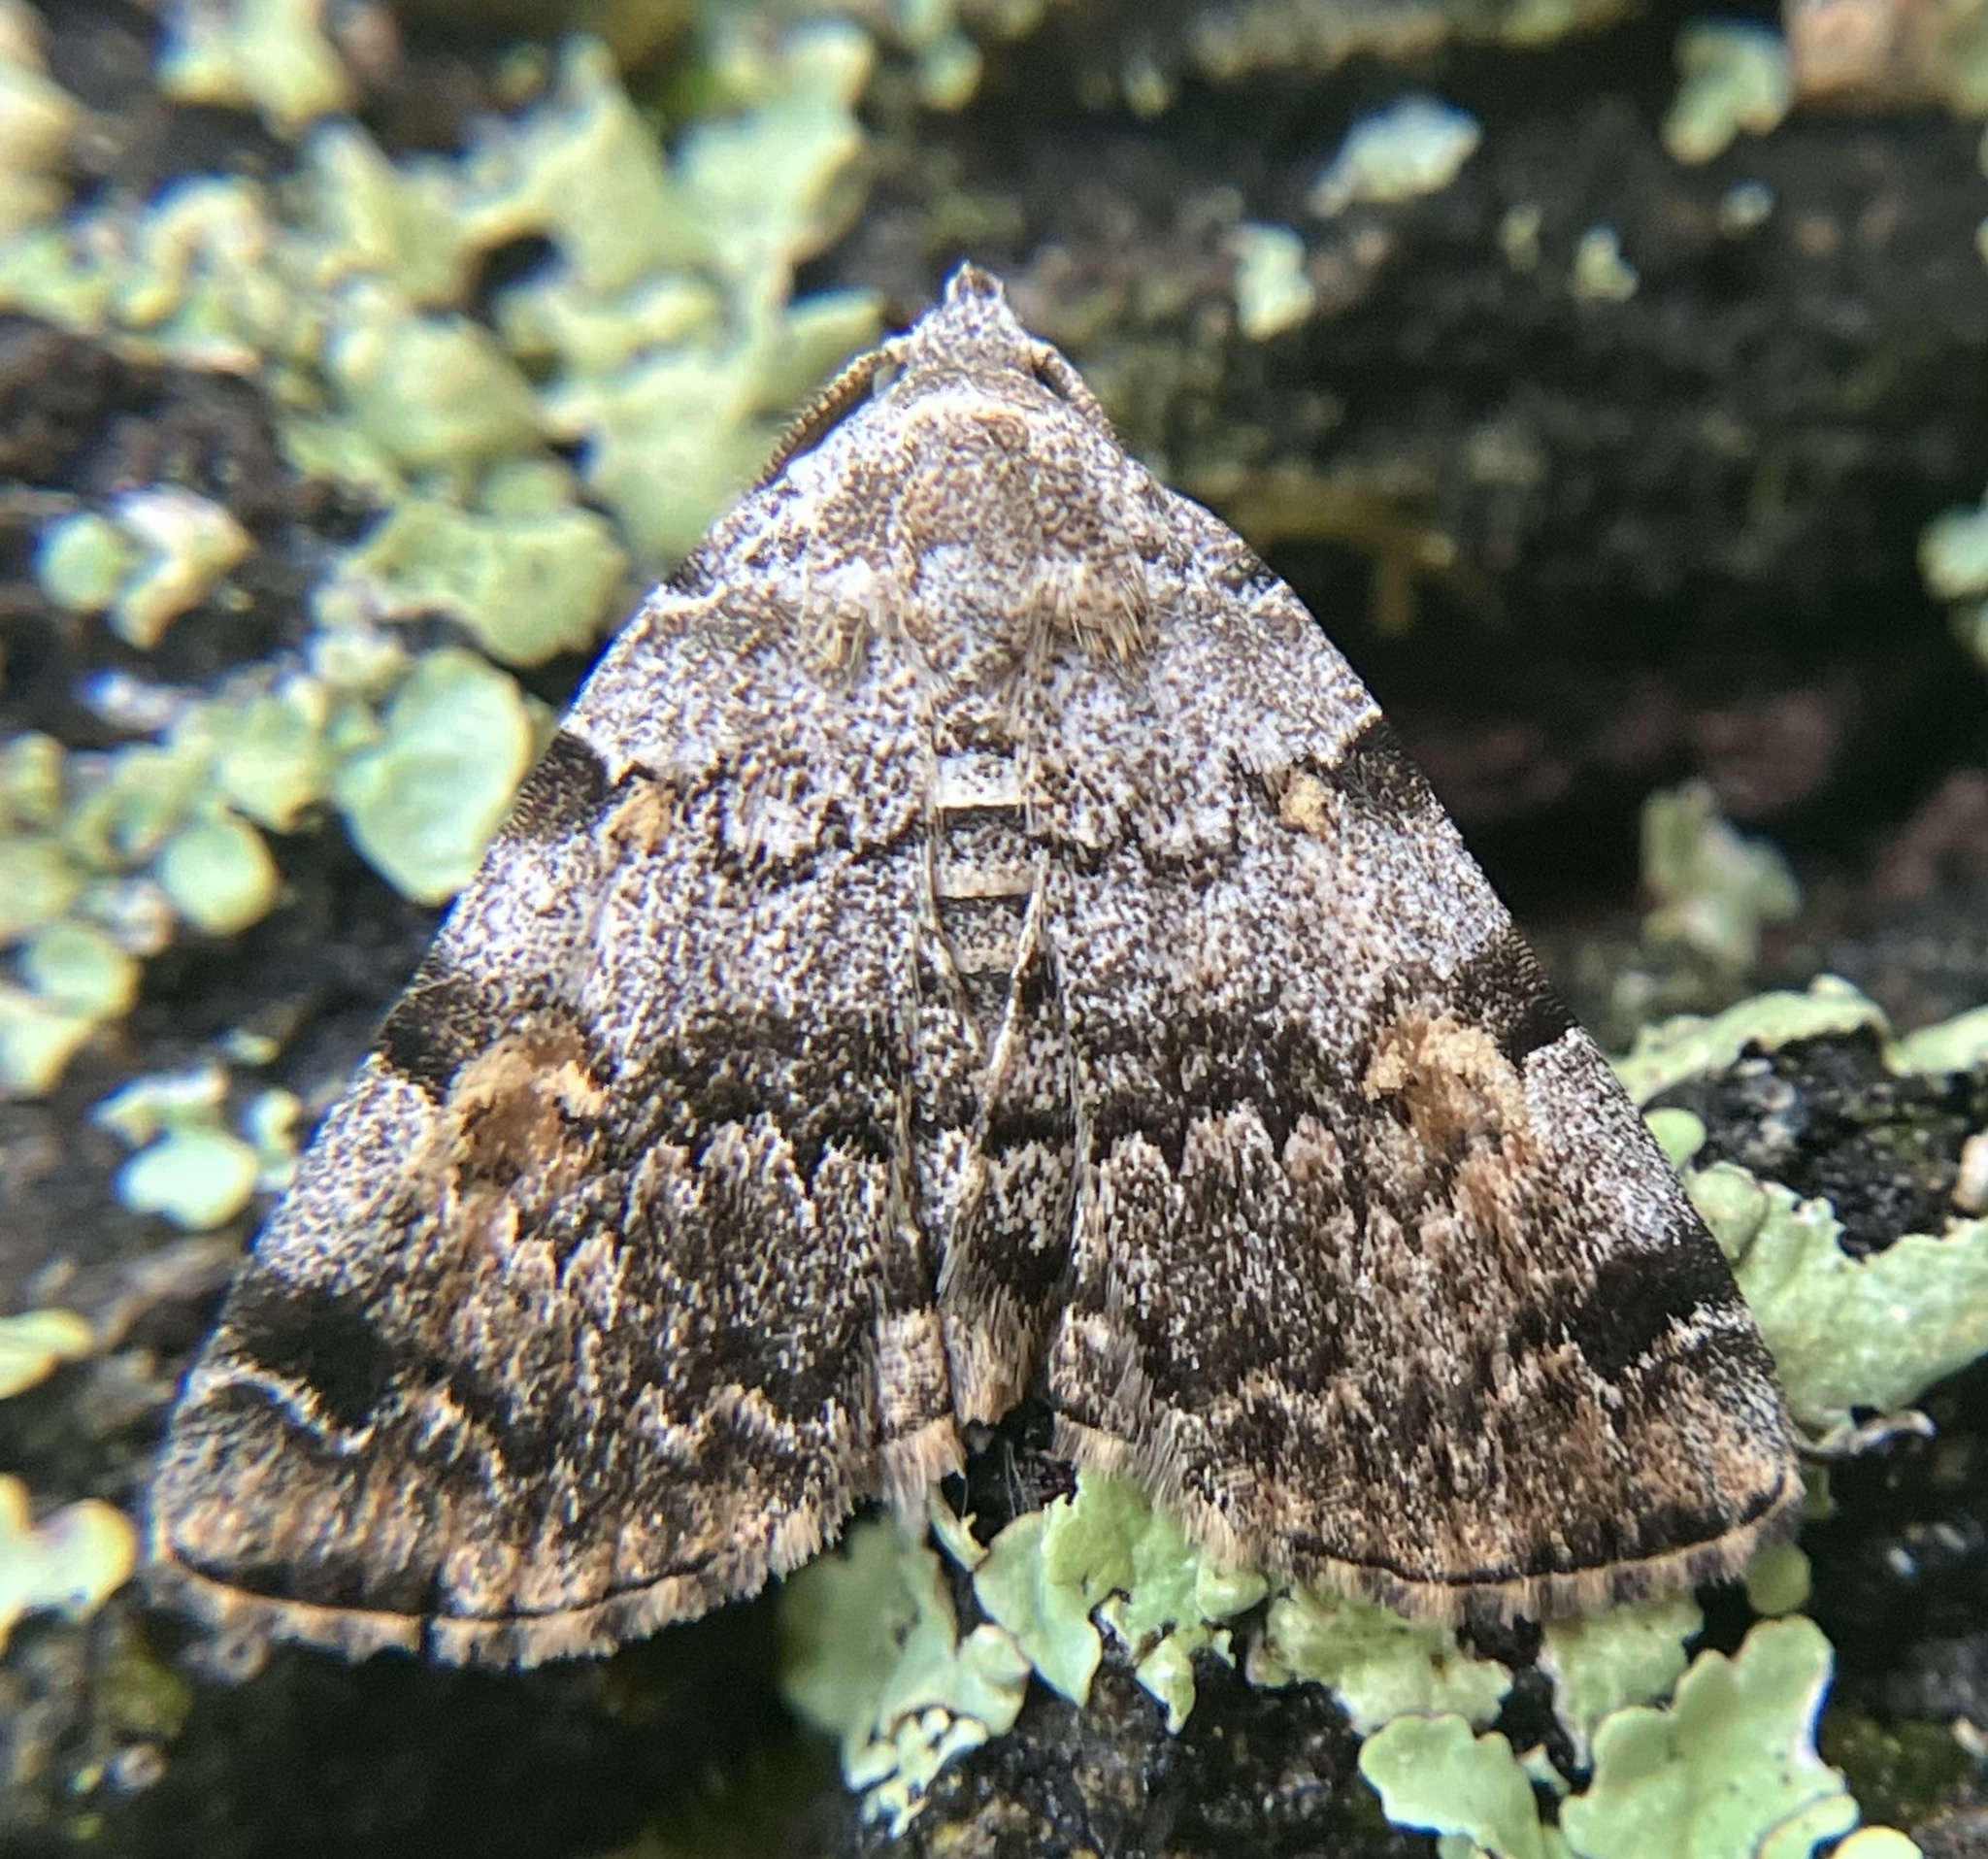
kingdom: Animalia
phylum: Arthropoda
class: Insecta
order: Lepidoptera
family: Erebidae
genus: Idia
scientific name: Idia americalis
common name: American idia moth
